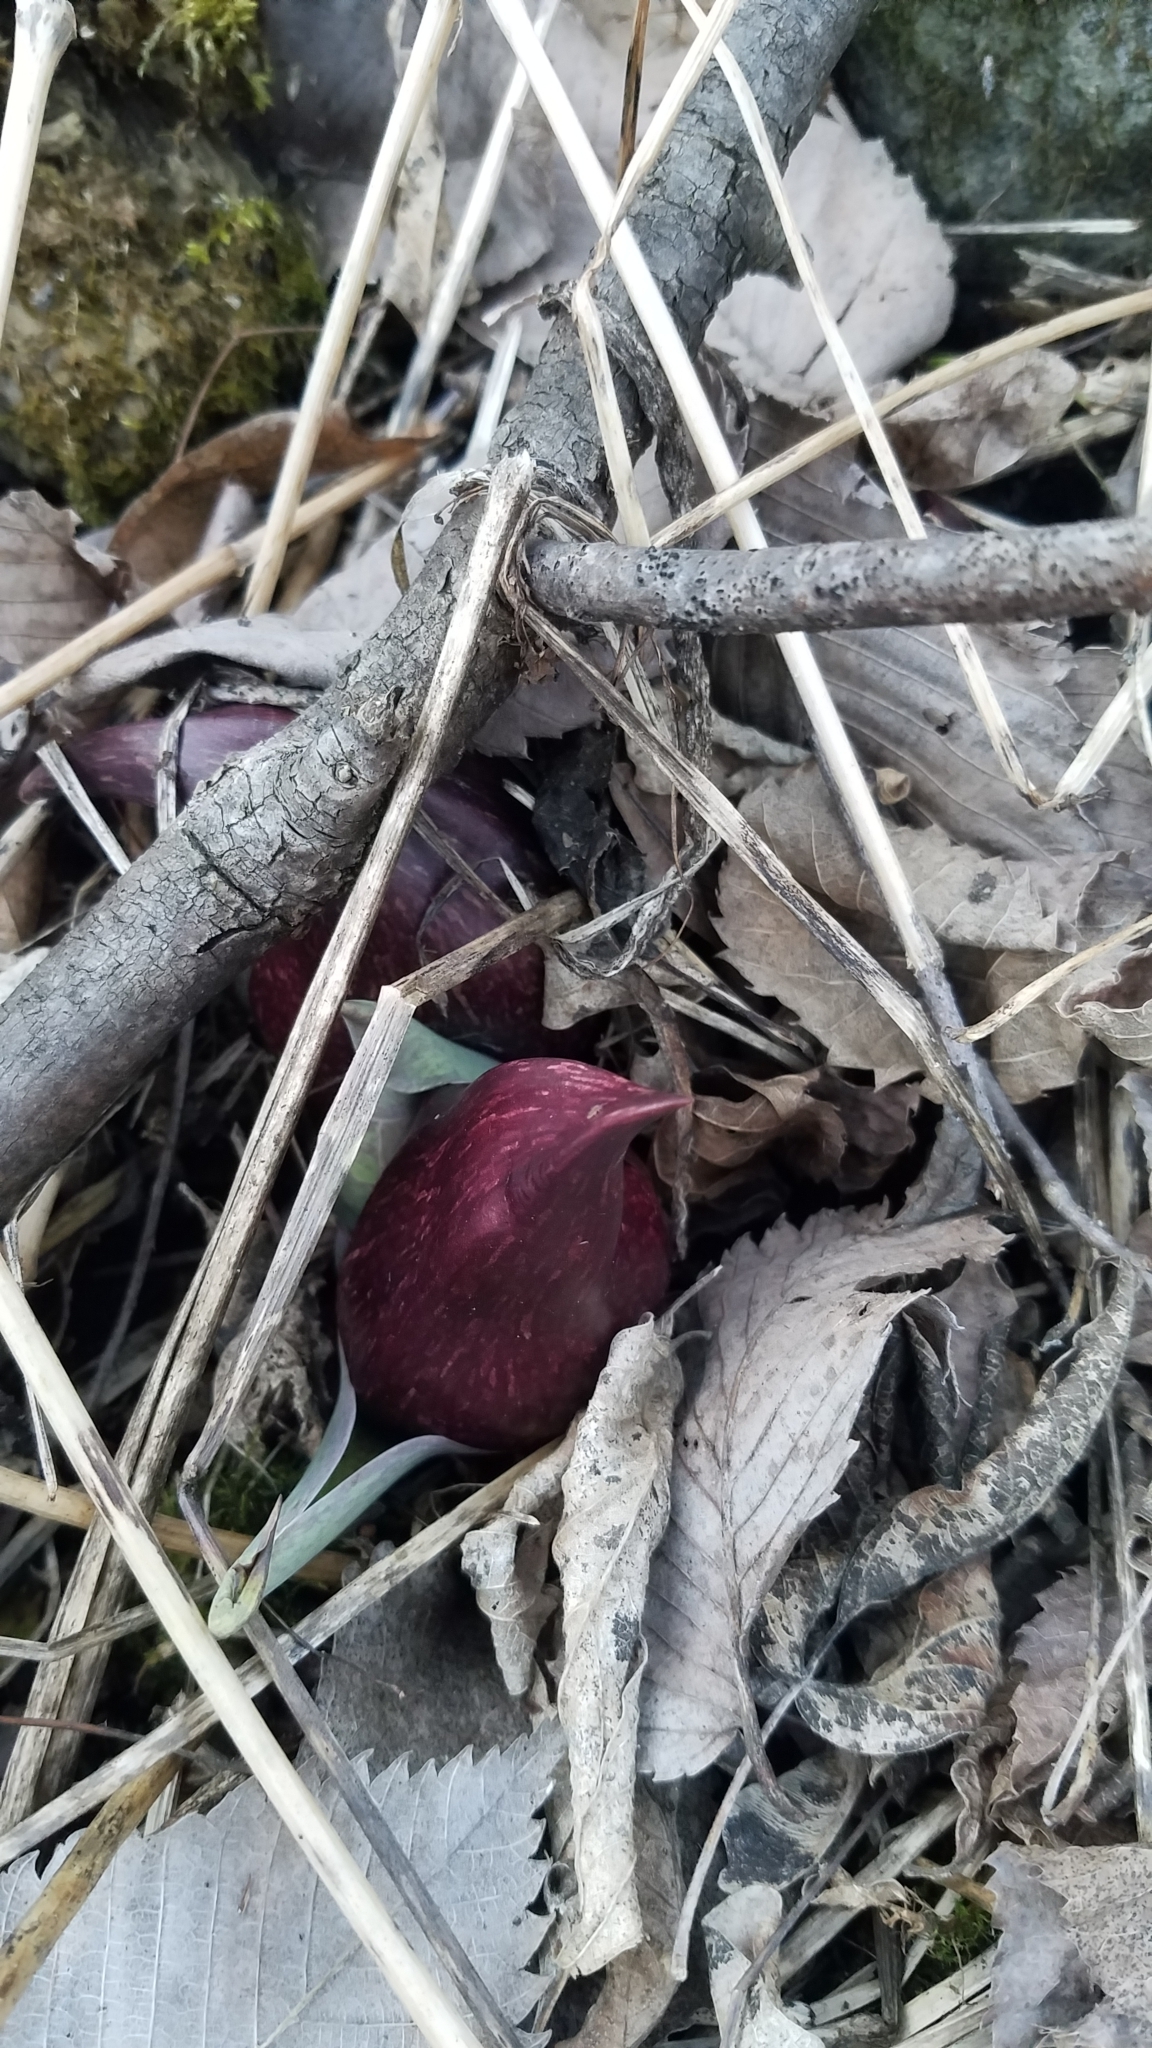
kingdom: Plantae
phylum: Tracheophyta
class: Liliopsida
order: Alismatales
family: Araceae
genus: Symplocarpus
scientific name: Symplocarpus foetidus
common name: Eastern skunk cabbage
